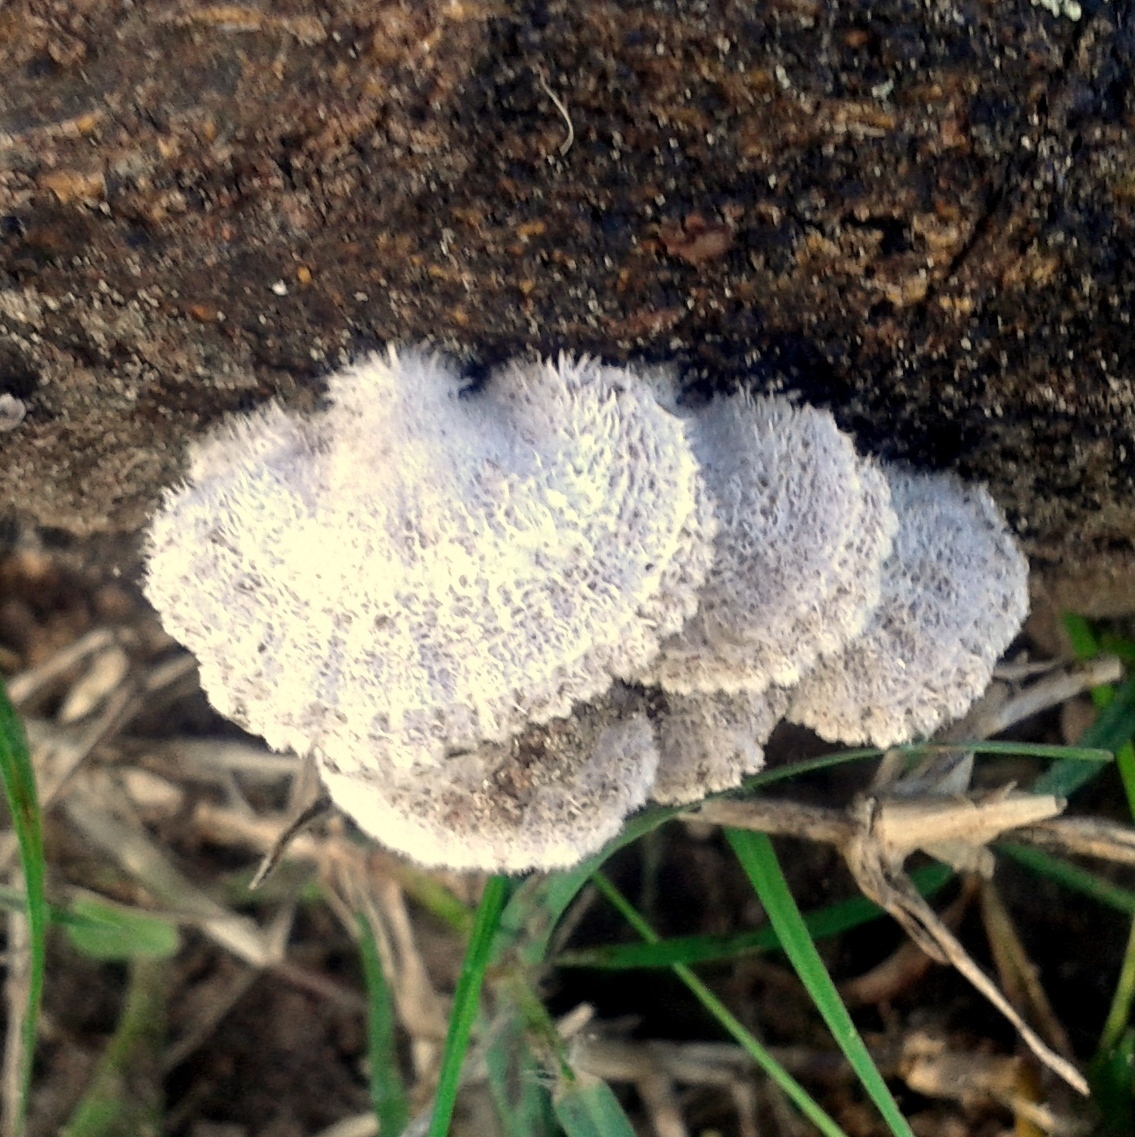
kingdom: Fungi
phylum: Basidiomycota
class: Agaricomycetes
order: Agaricales
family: Schizophyllaceae
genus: Schizophyllum
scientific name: Schizophyllum commune
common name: Common porecrust
